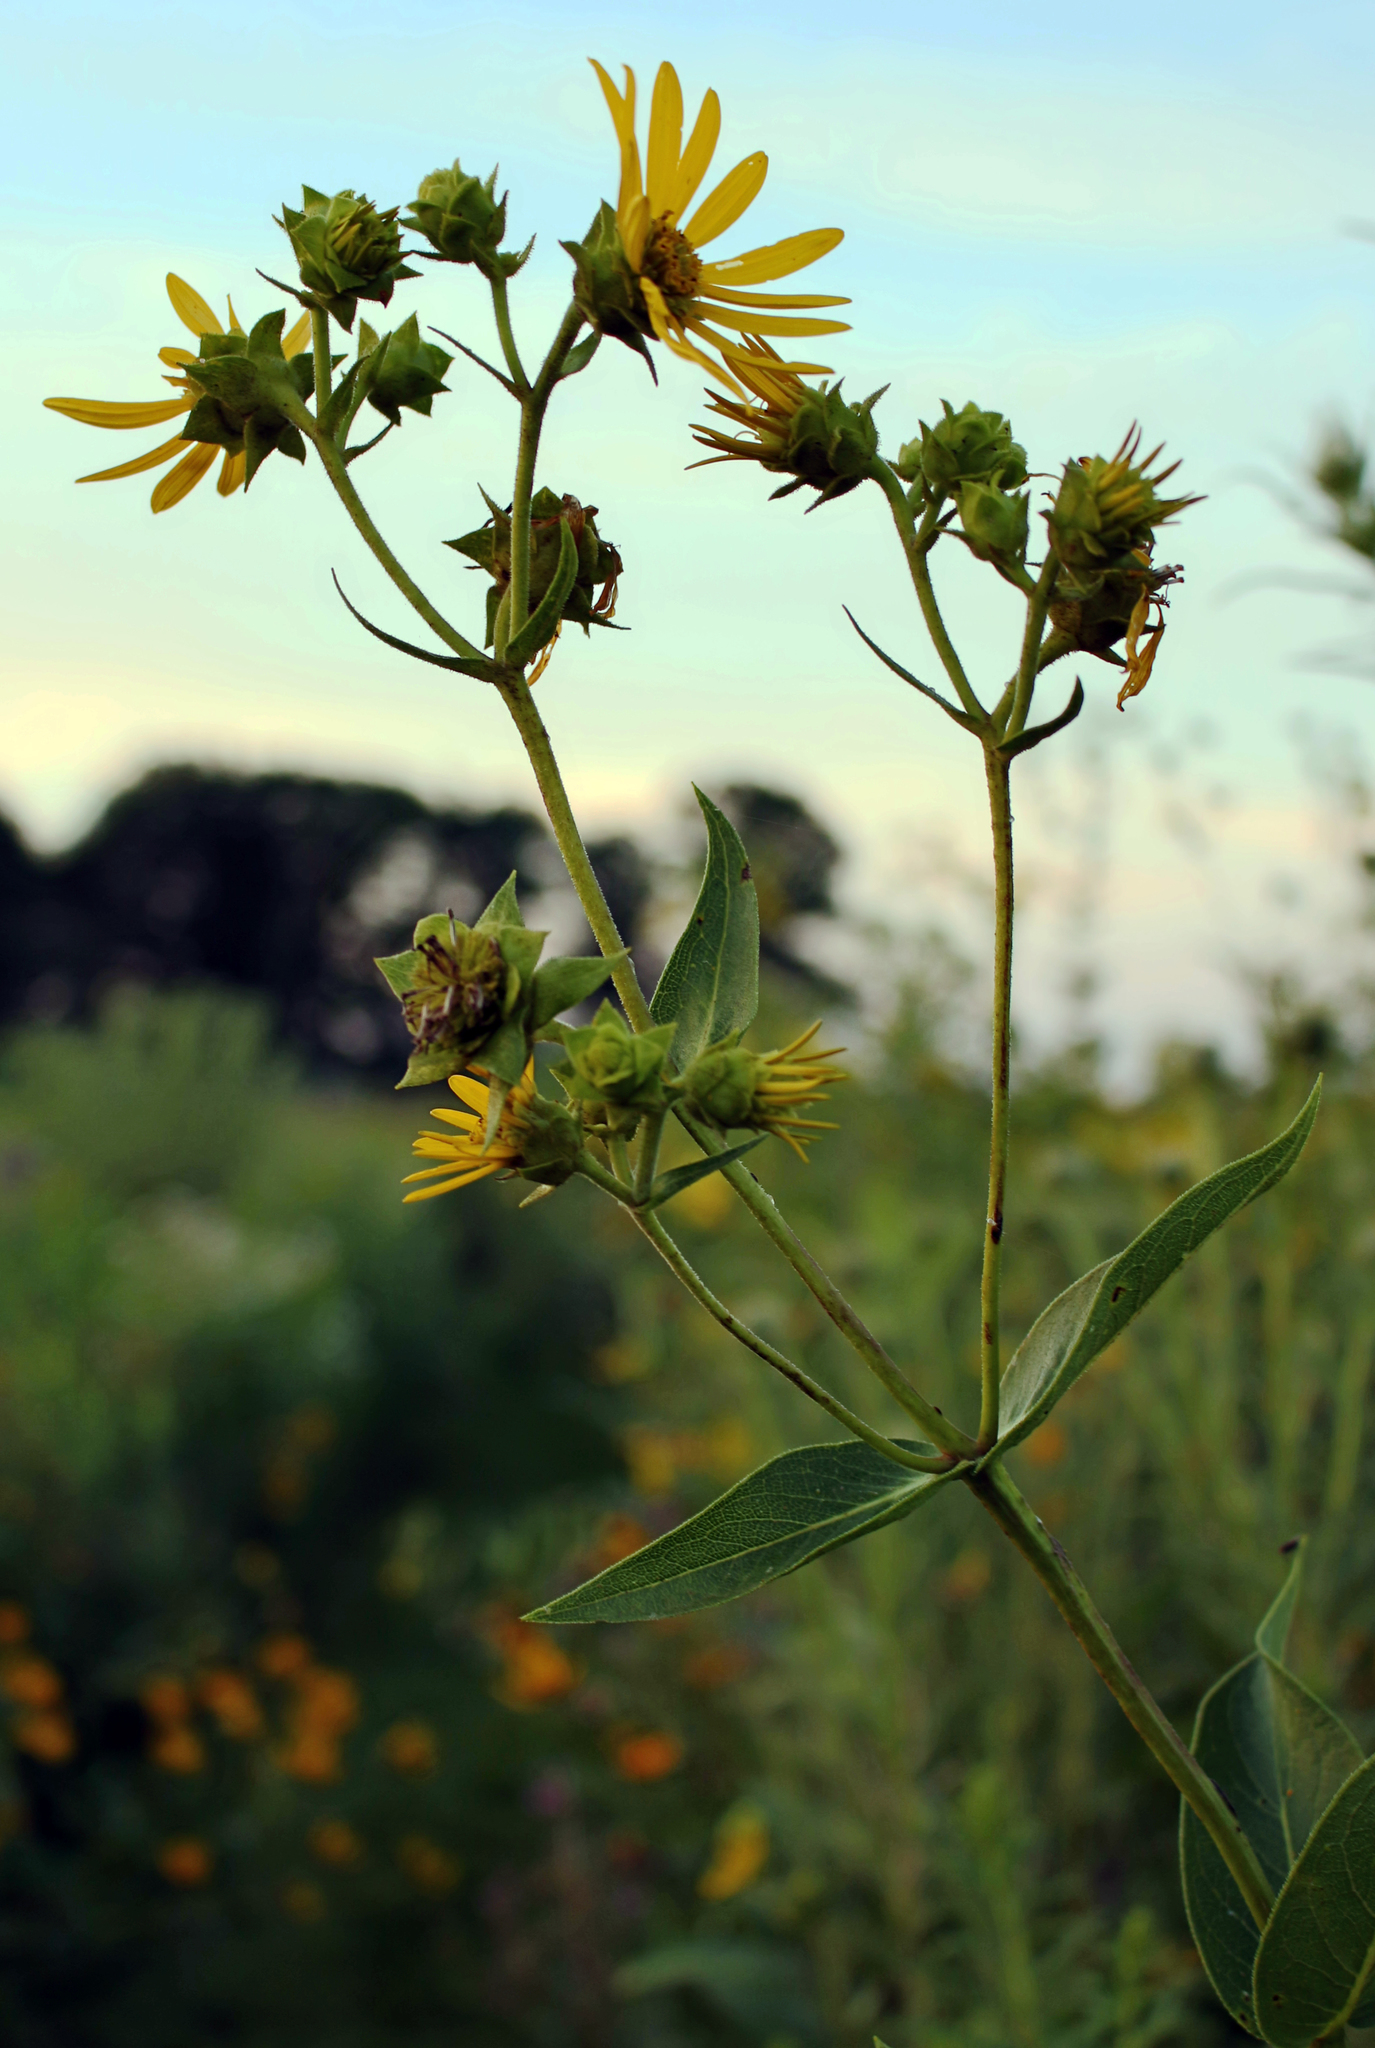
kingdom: Plantae
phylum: Tracheophyta
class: Magnoliopsida
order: Asterales
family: Asteraceae
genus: Silphium
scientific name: Silphium integrifolium
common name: Whole-leaf rosinweed
